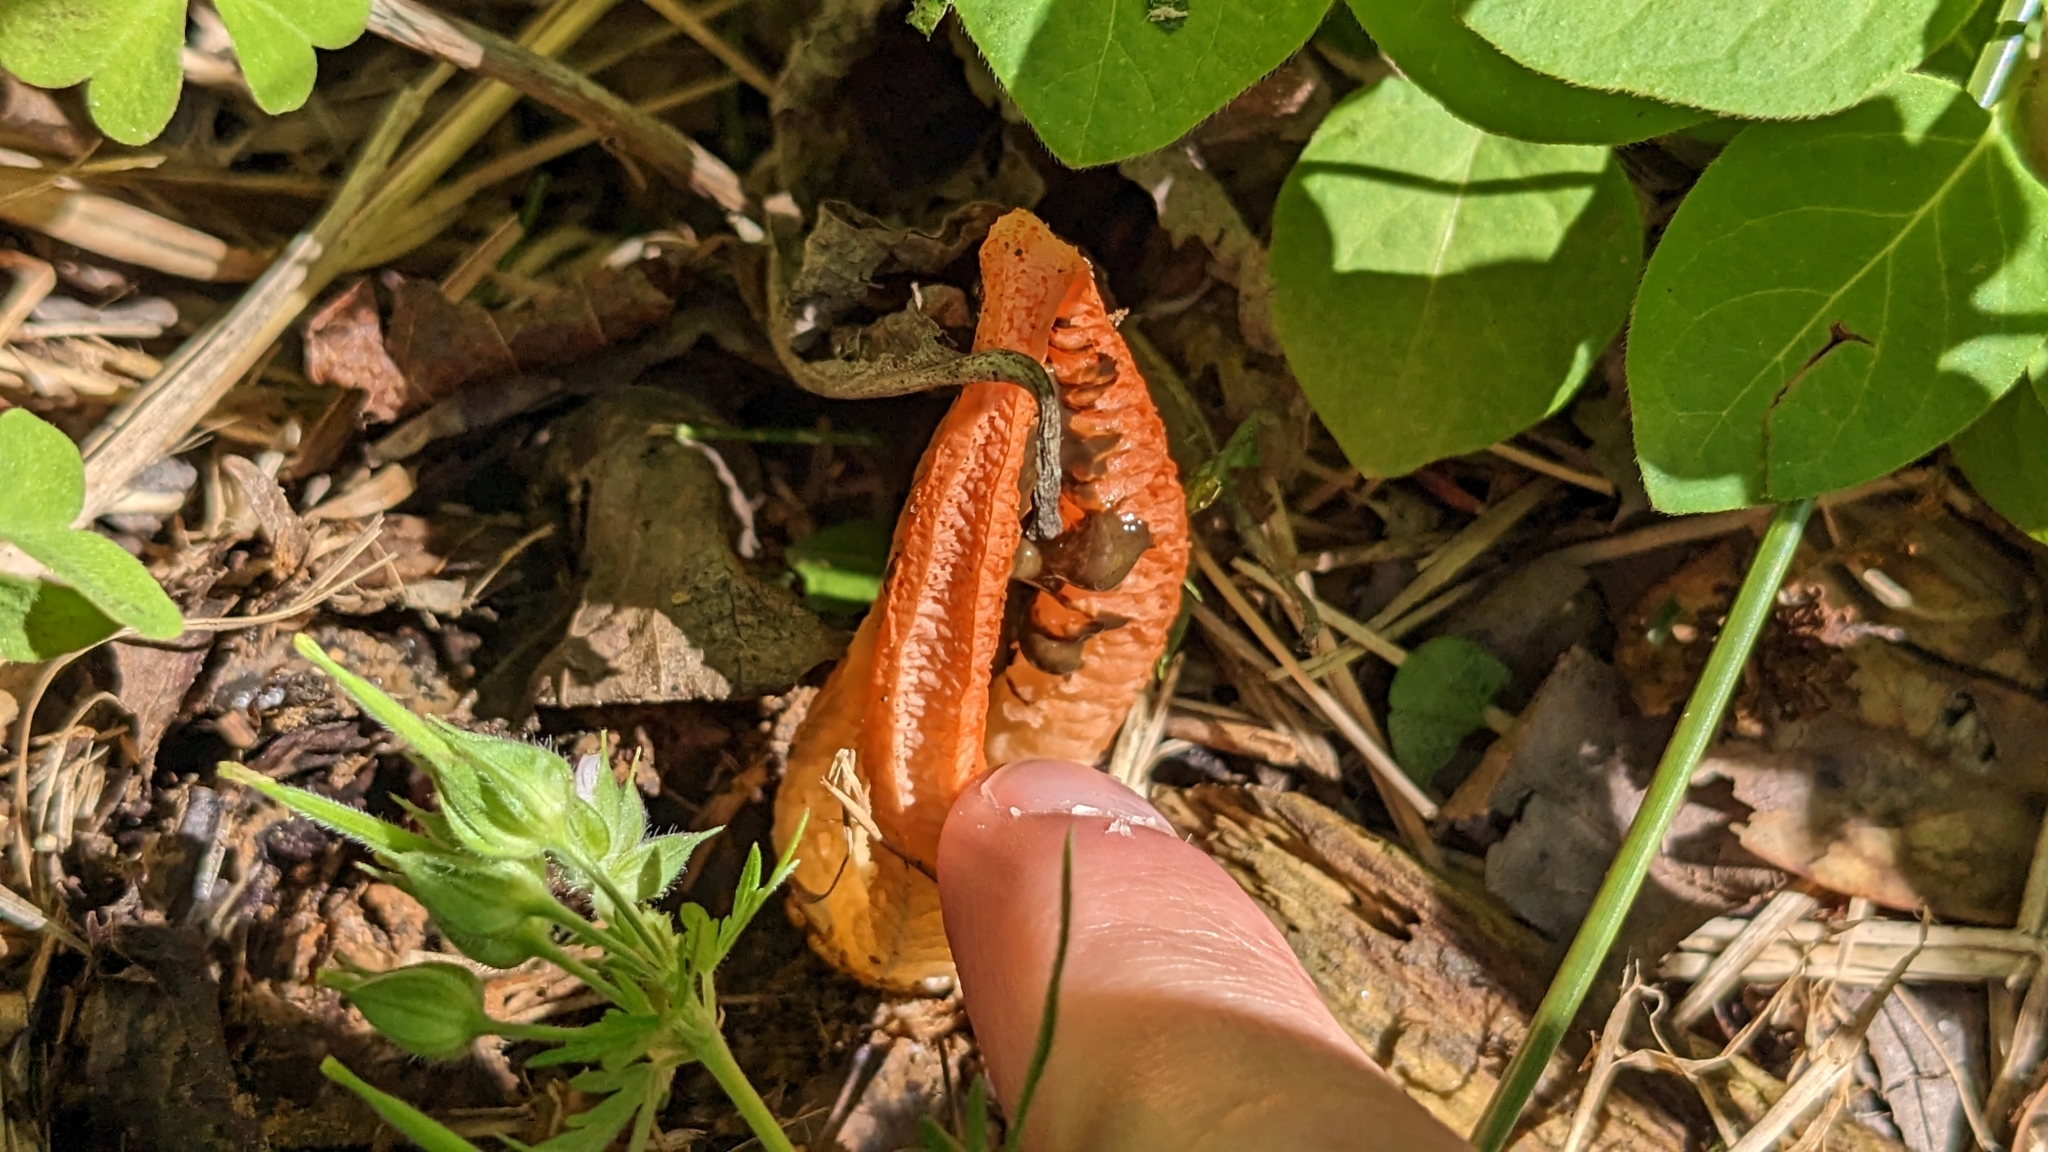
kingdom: Fungi
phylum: Basidiomycota
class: Agaricomycetes
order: Phallales
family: Phallaceae
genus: Pseudocolus
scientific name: Pseudocolus fusiformis
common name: Stinky squid
